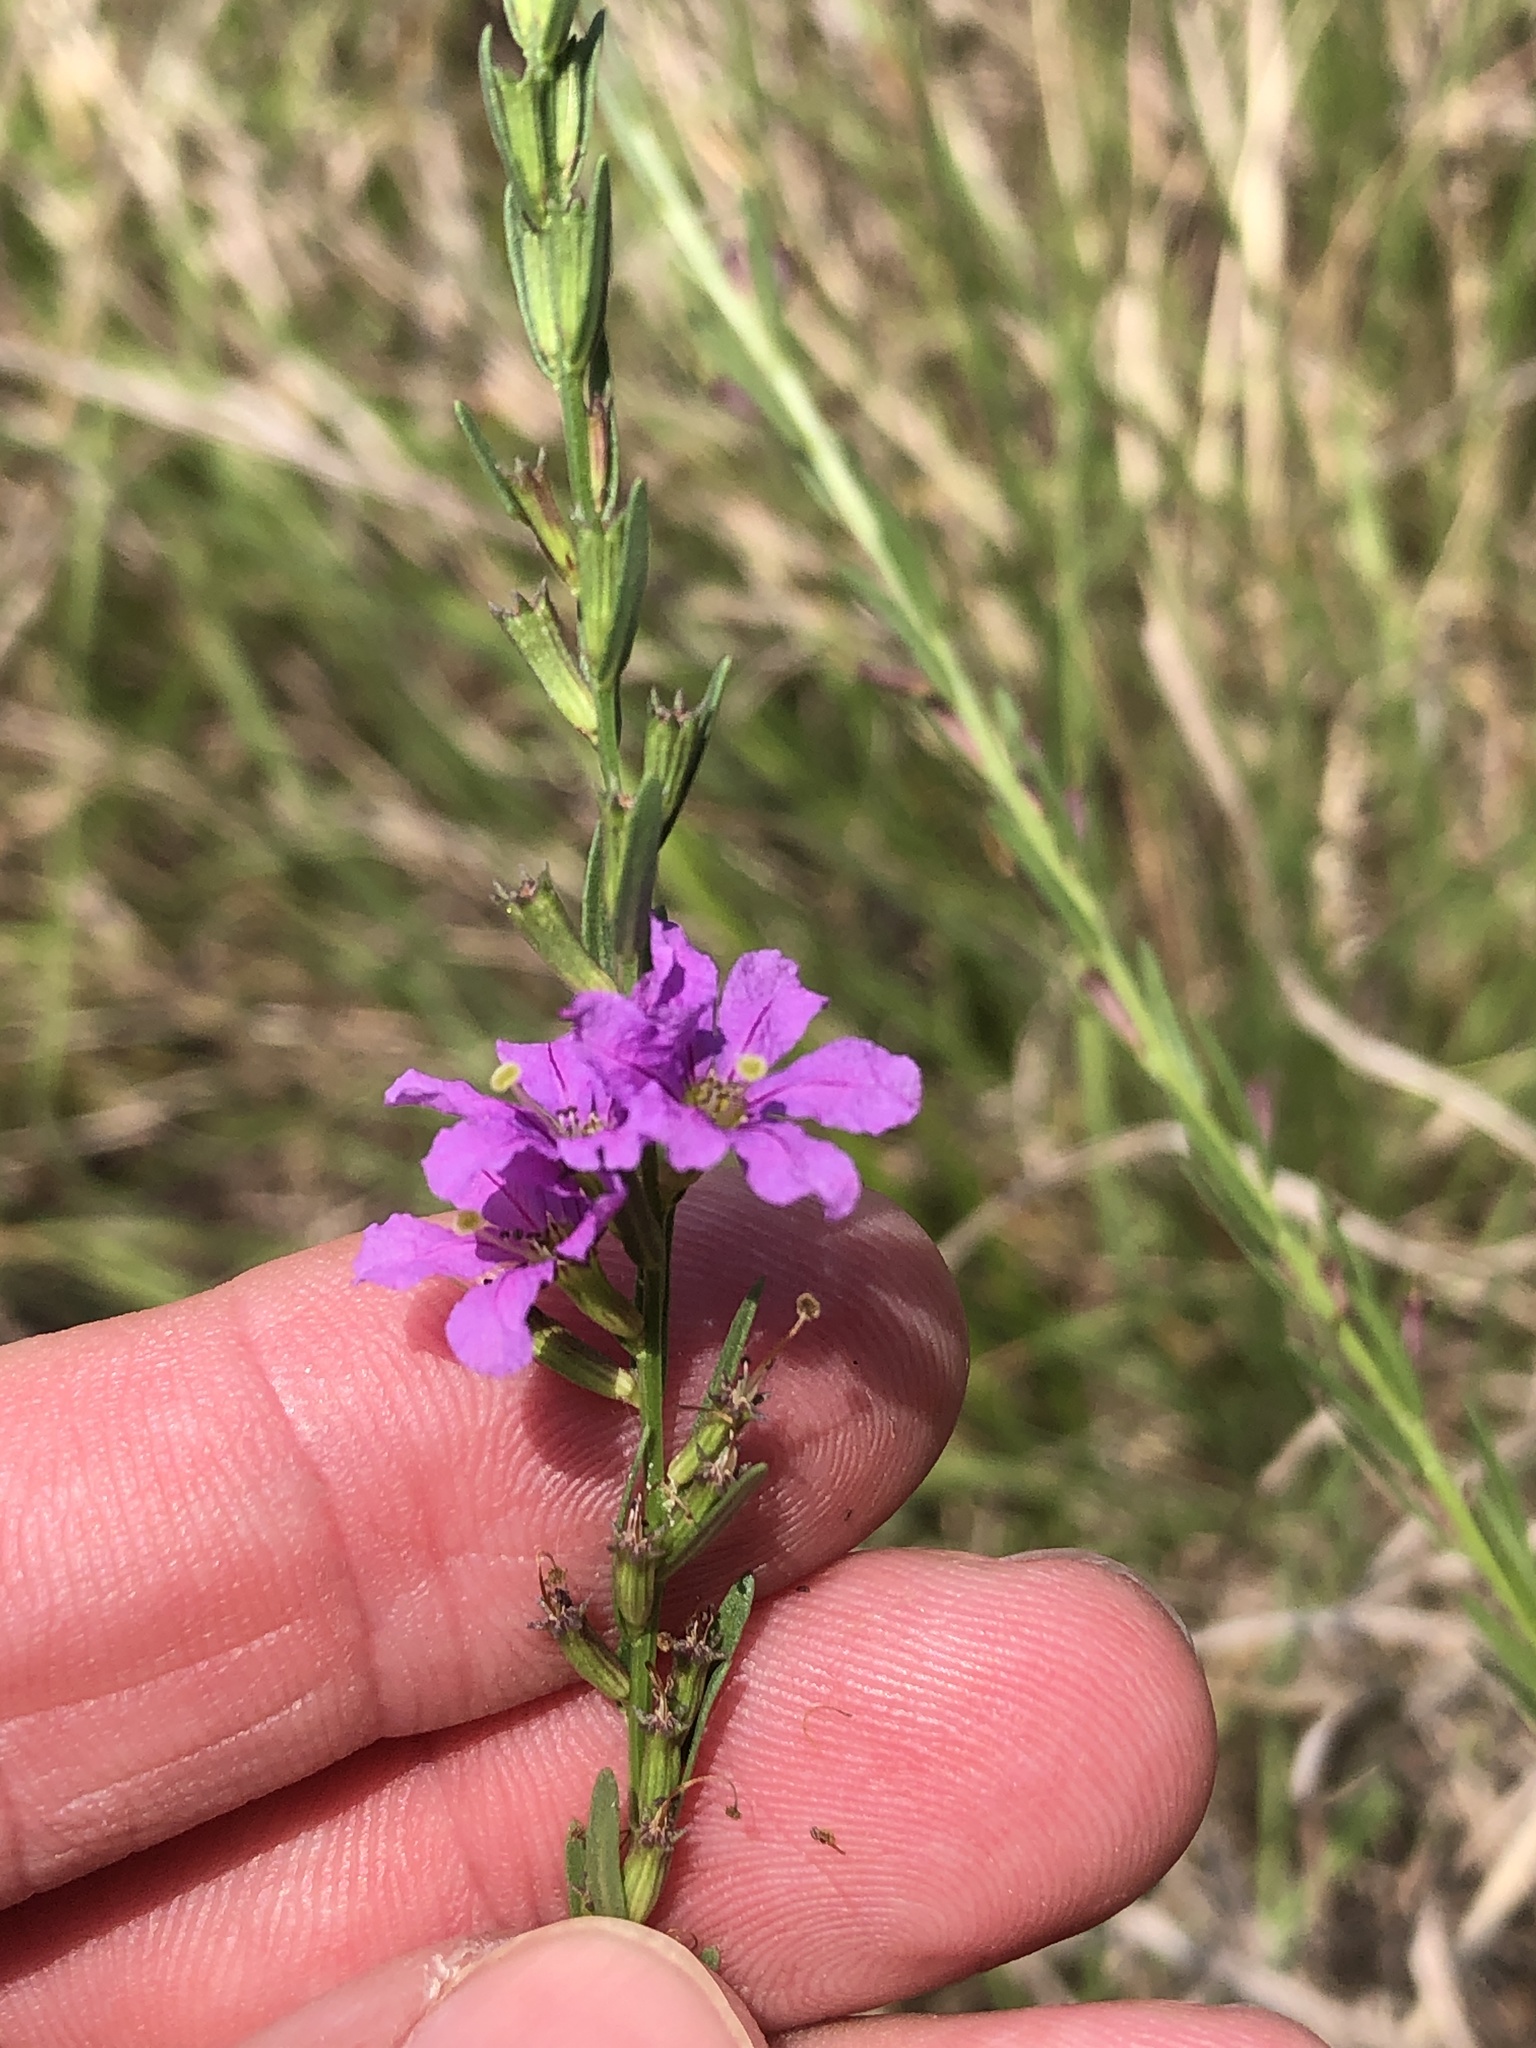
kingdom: Plantae
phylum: Tracheophyta
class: Magnoliopsida
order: Myrtales
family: Lythraceae
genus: Lythrum
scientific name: Lythrum alatum
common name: Winged loosestrife
